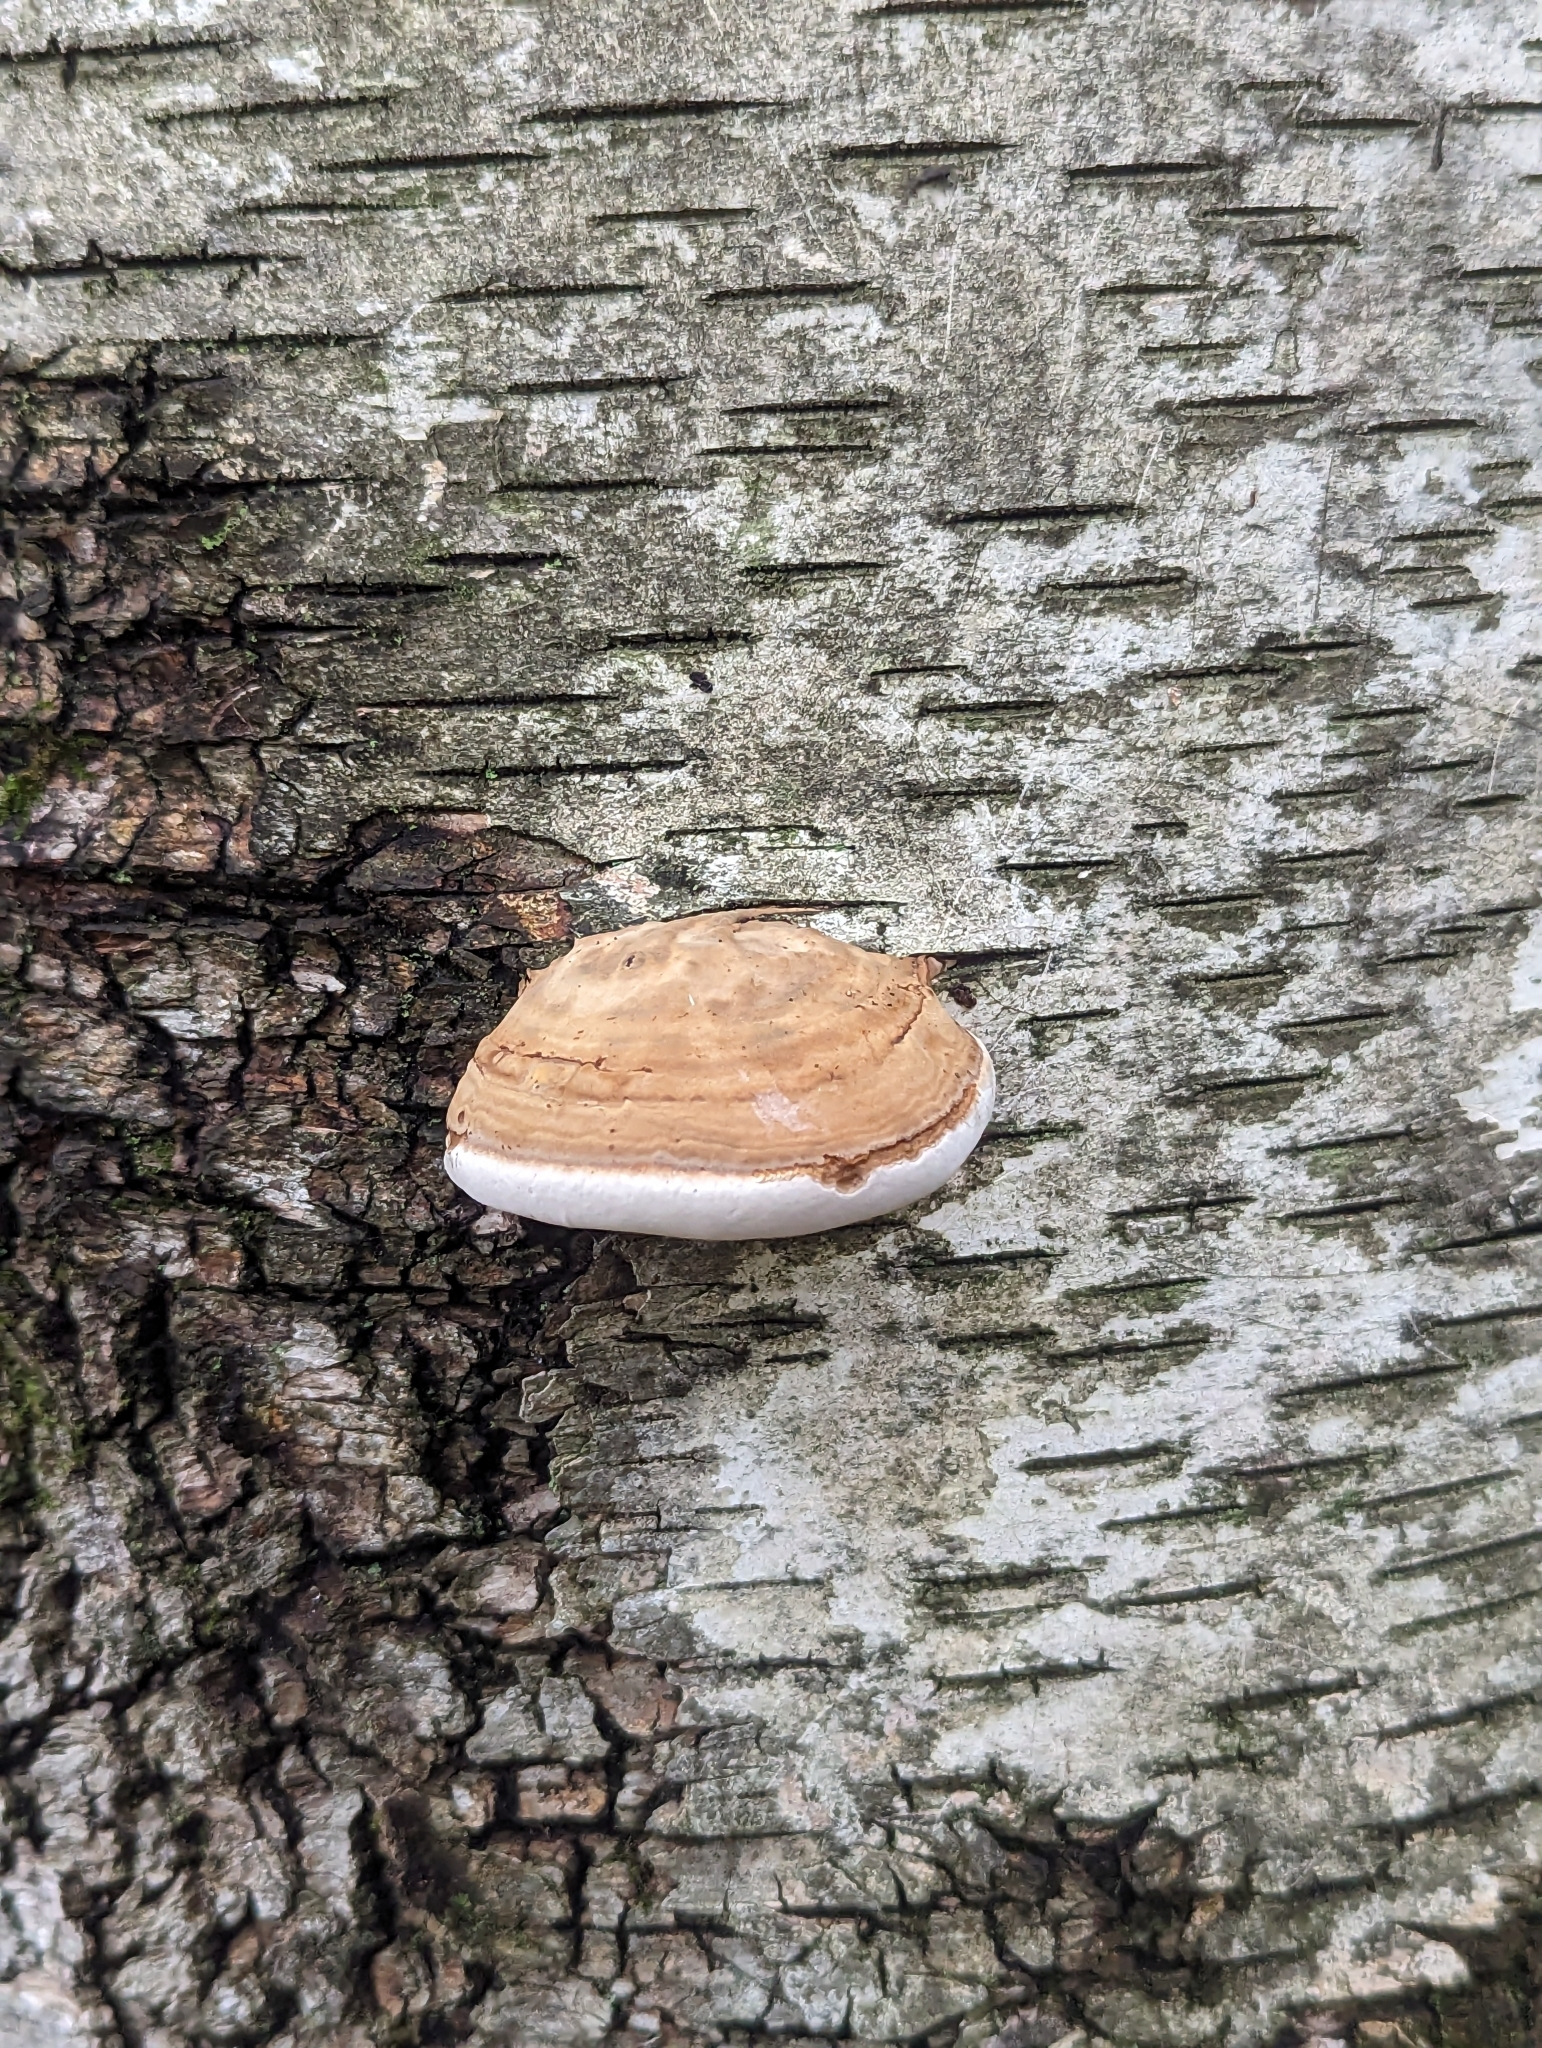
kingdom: Fungi
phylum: Basidiomycota
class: Agaricomycetes
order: Polyporales
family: Polyporaceae
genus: Fomes
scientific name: Fomes fomentarius
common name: Hoof fungus
